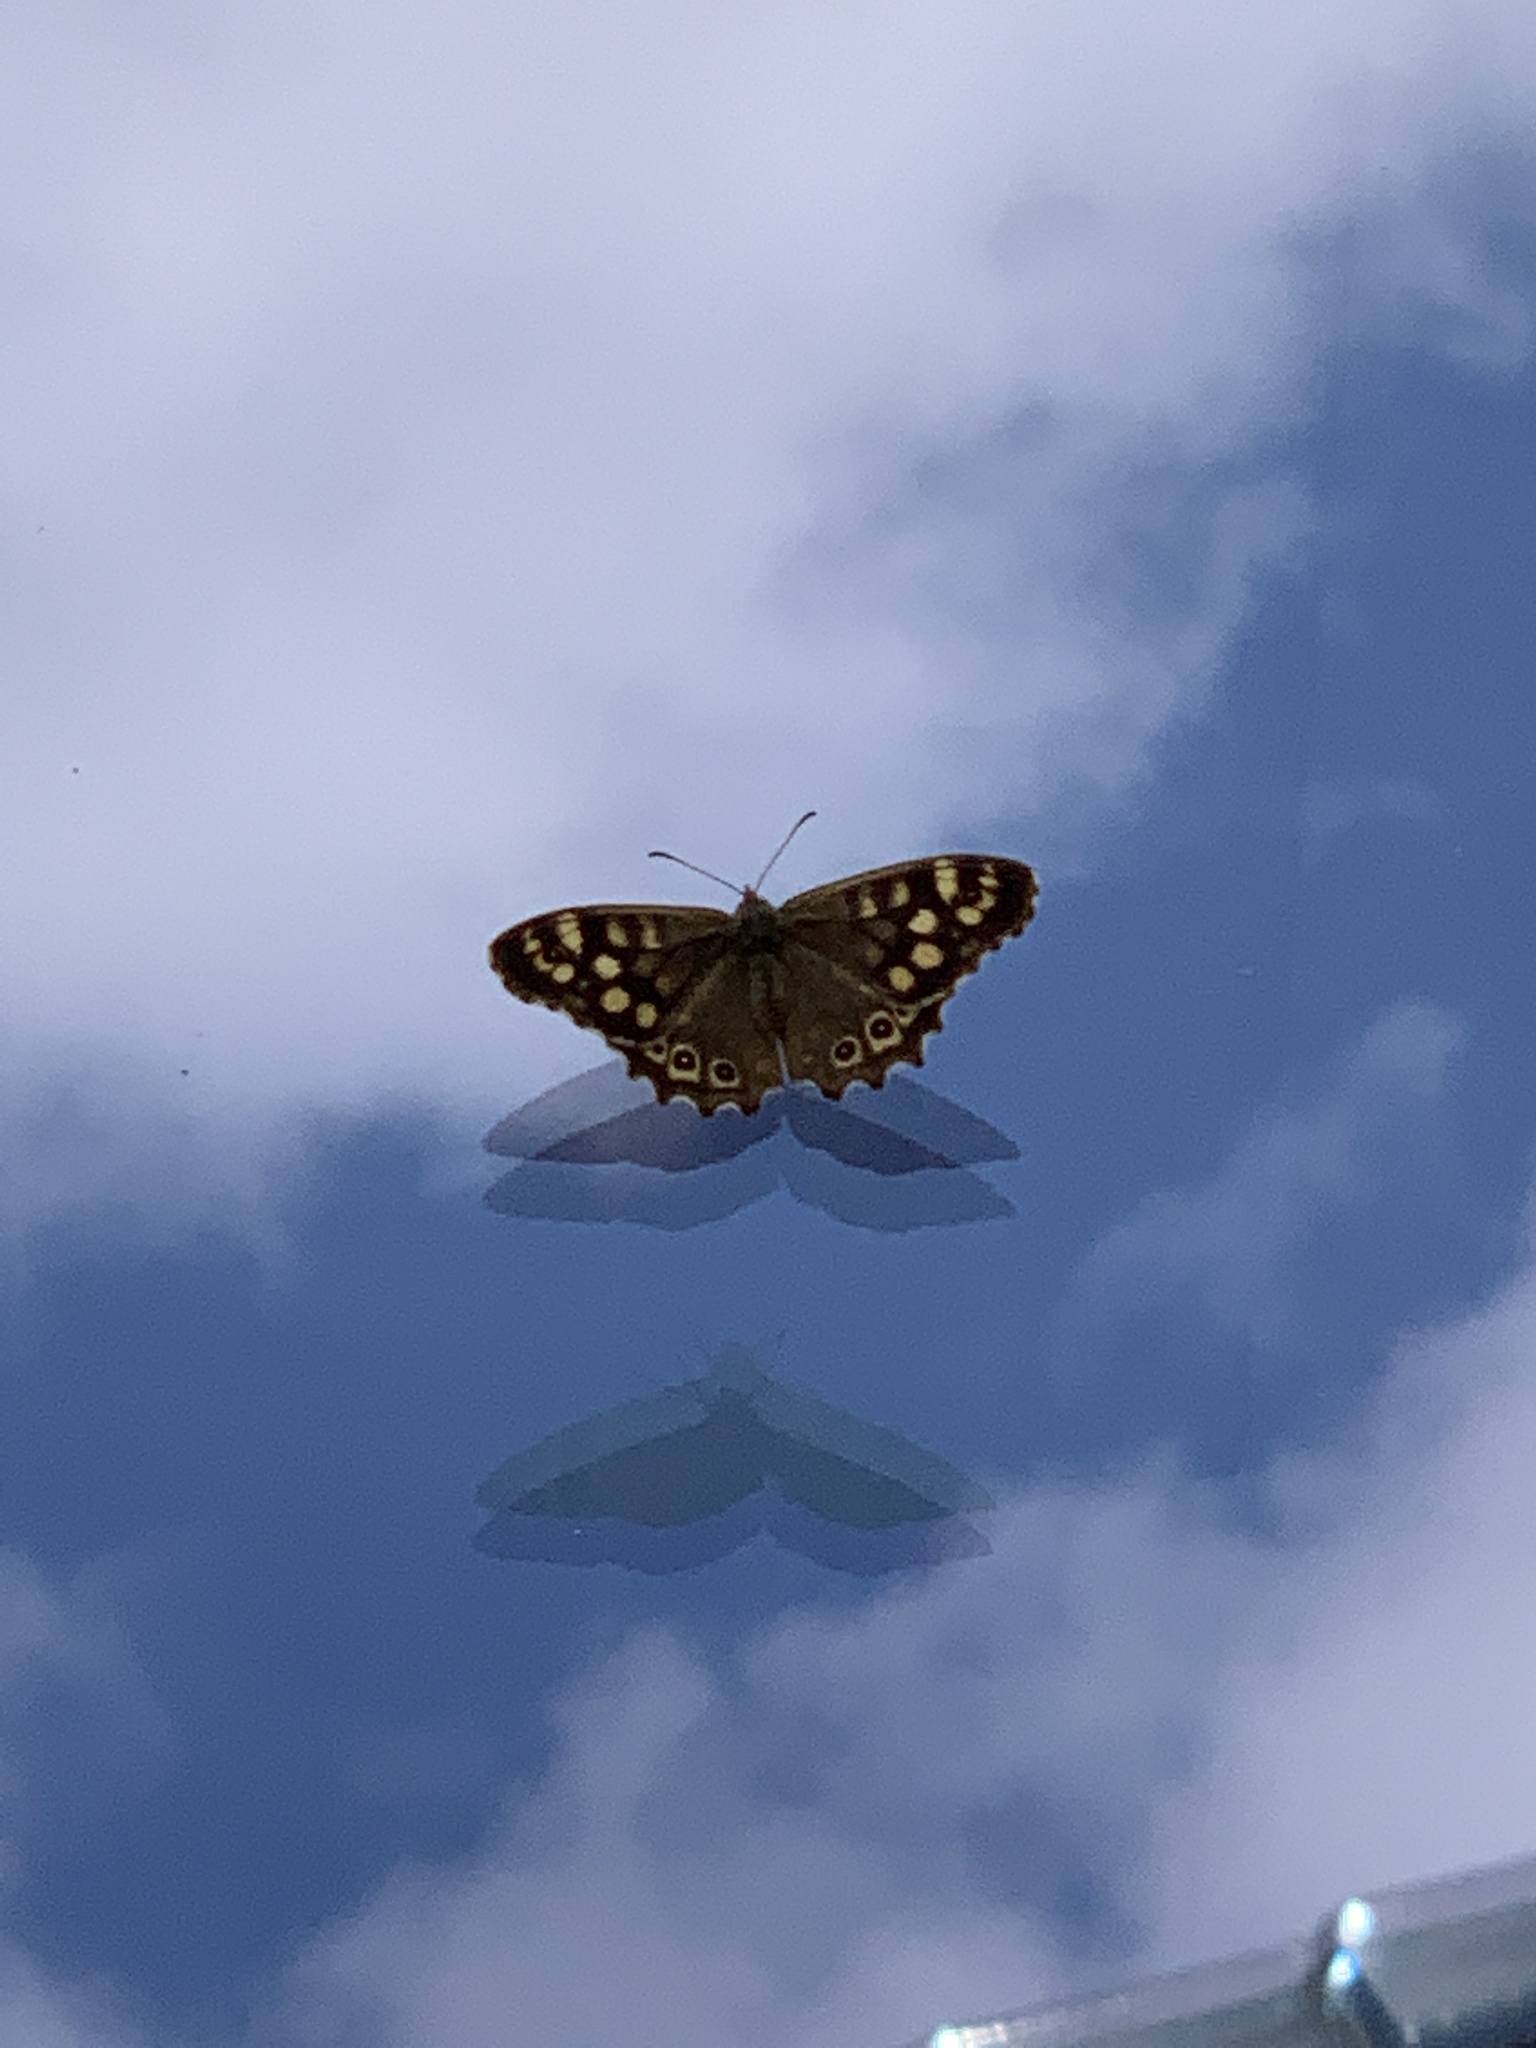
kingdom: Animalia
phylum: Arthropoda
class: Insecta
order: Lepidoptera
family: Nymphalidae
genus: Pararge
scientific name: Pararge aegeria
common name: Speckled wood
